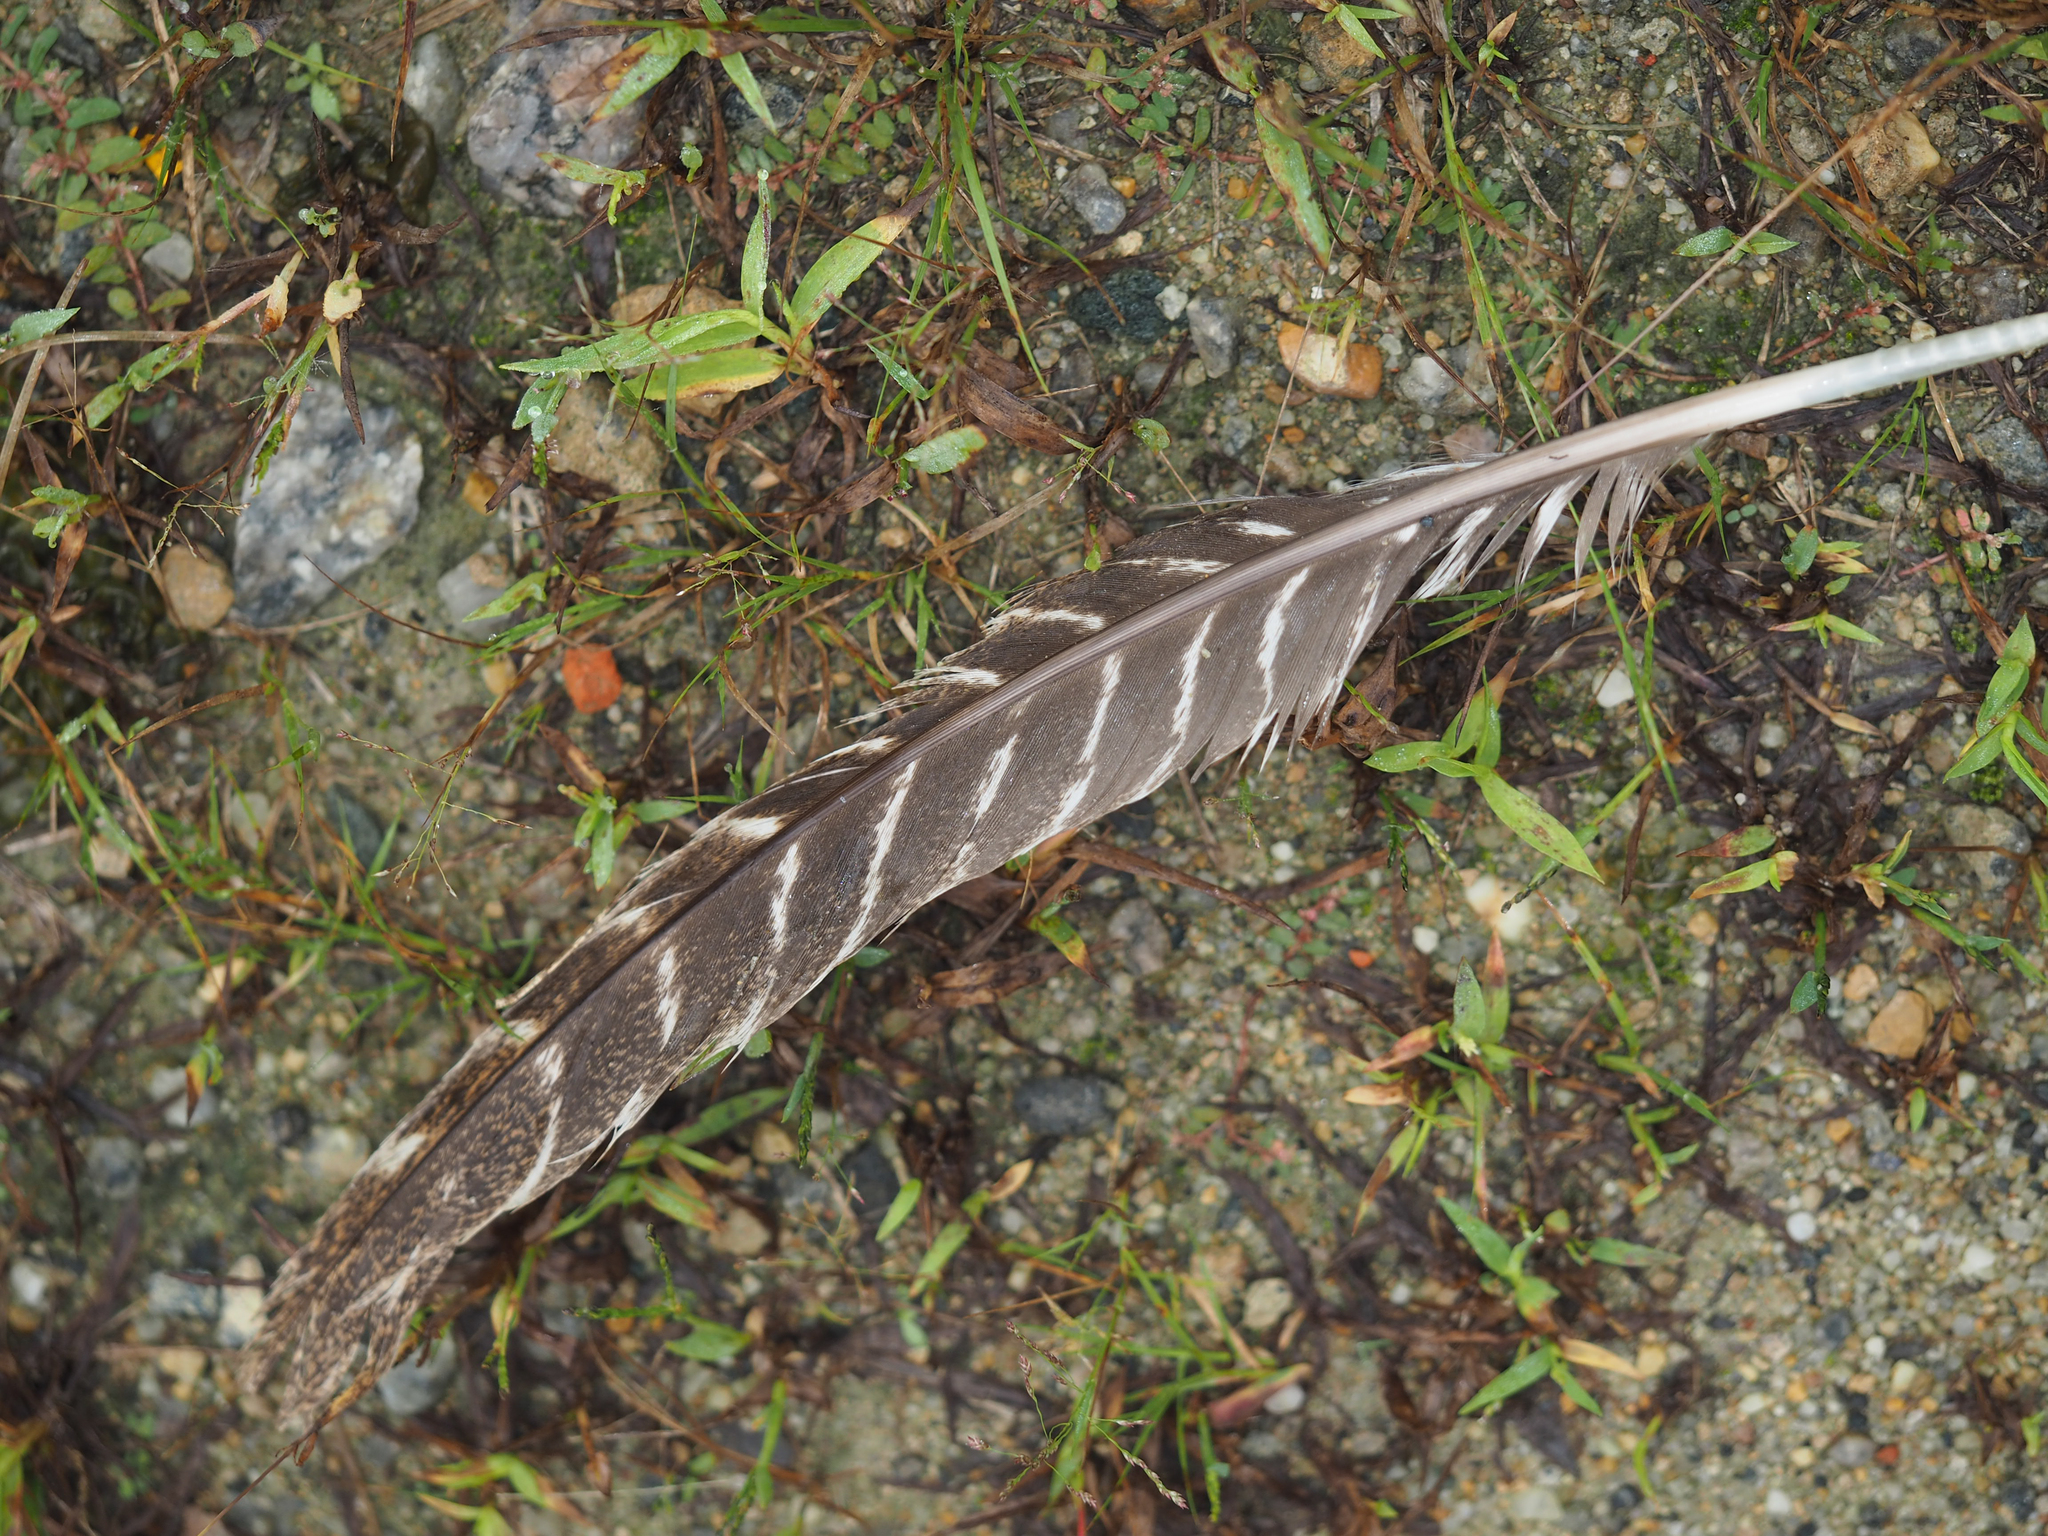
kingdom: Animalia
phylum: Chordata
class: Aves
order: Galliformes
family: Phasianidae
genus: Meleagris
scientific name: Meleagris gallopavo
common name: Wild turkey
